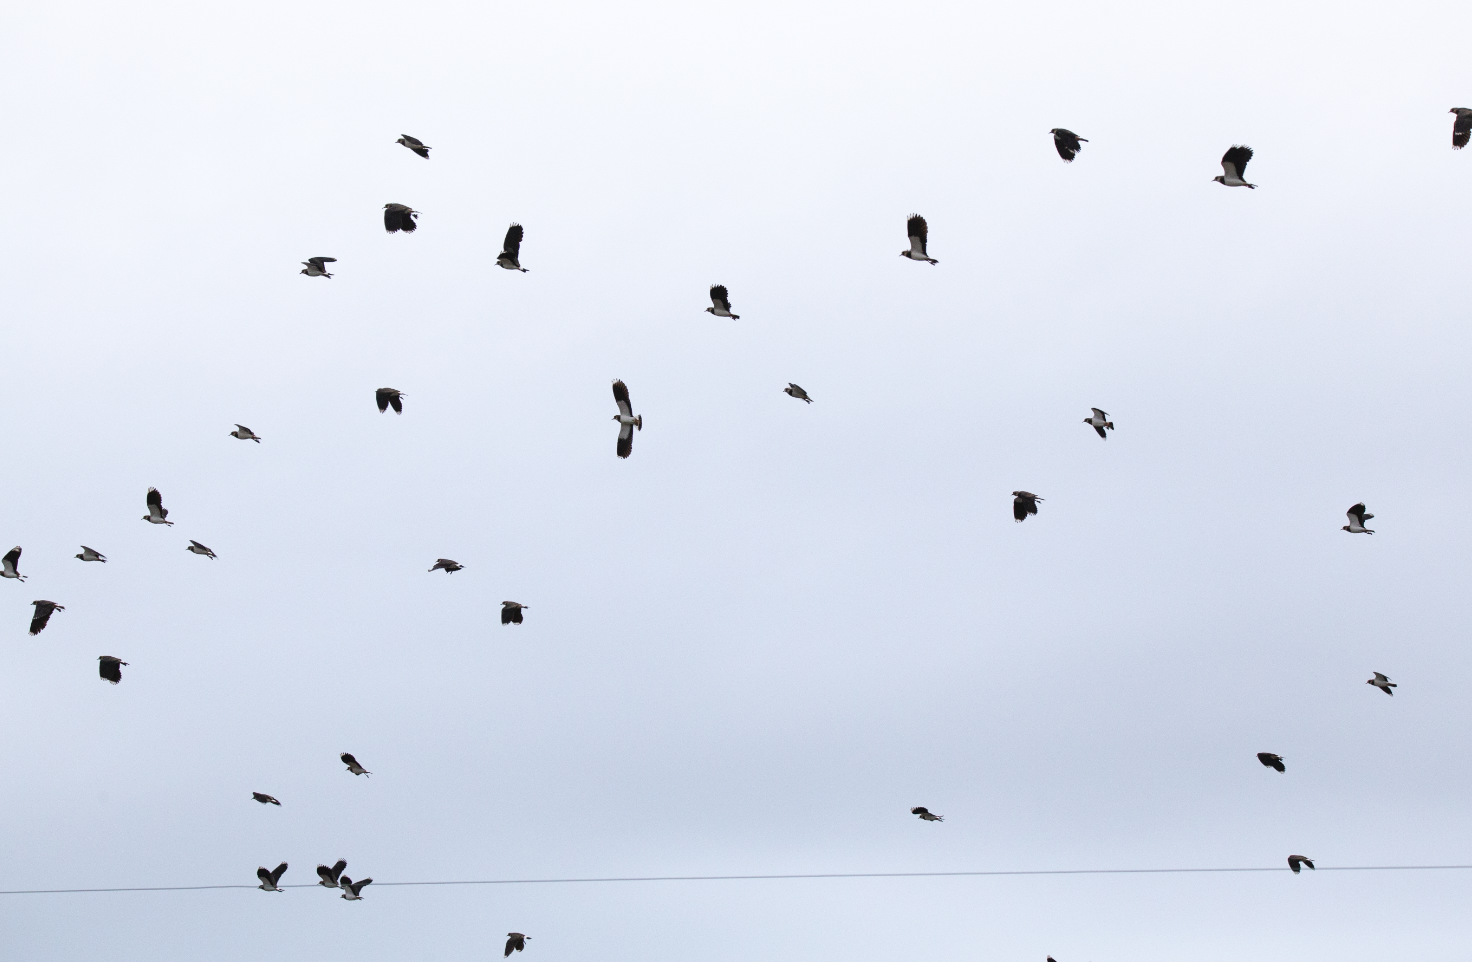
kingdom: Animalia
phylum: Chordata
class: Aves
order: Charadriiformes
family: Charadriidae
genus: Vanellus
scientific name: Vanellus vanellus
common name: Northern lapwing
